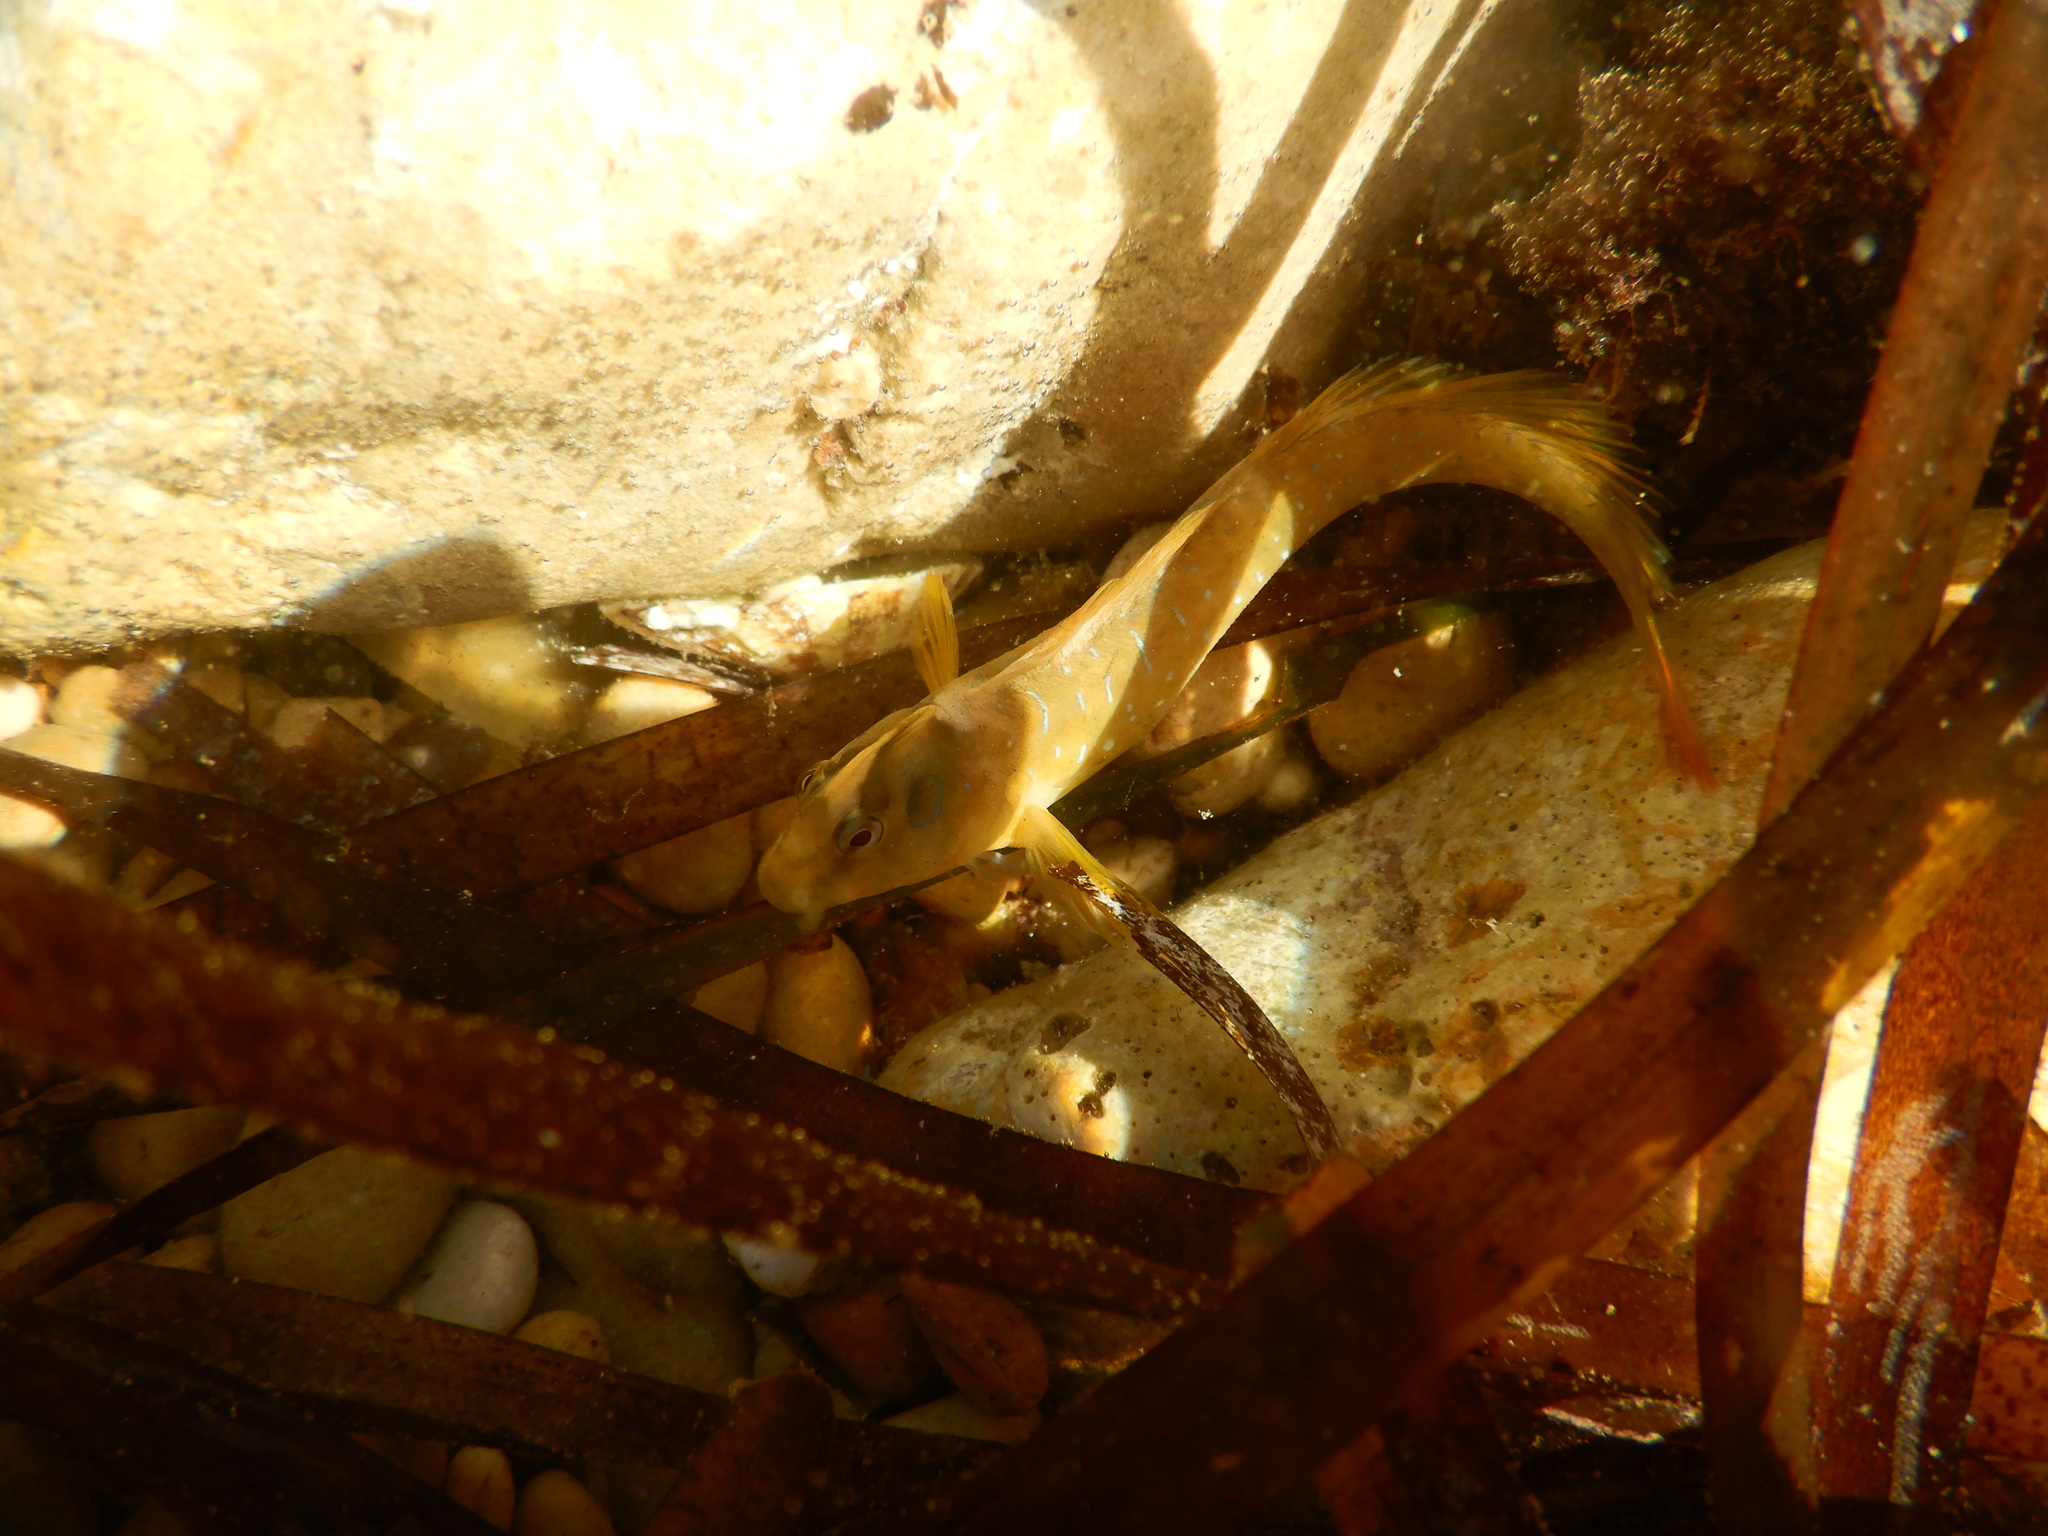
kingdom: Animalia
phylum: Chordata
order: Perciformes
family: Blenniidae
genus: Salaria
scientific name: Salaria pavo
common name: Peacock blenny
